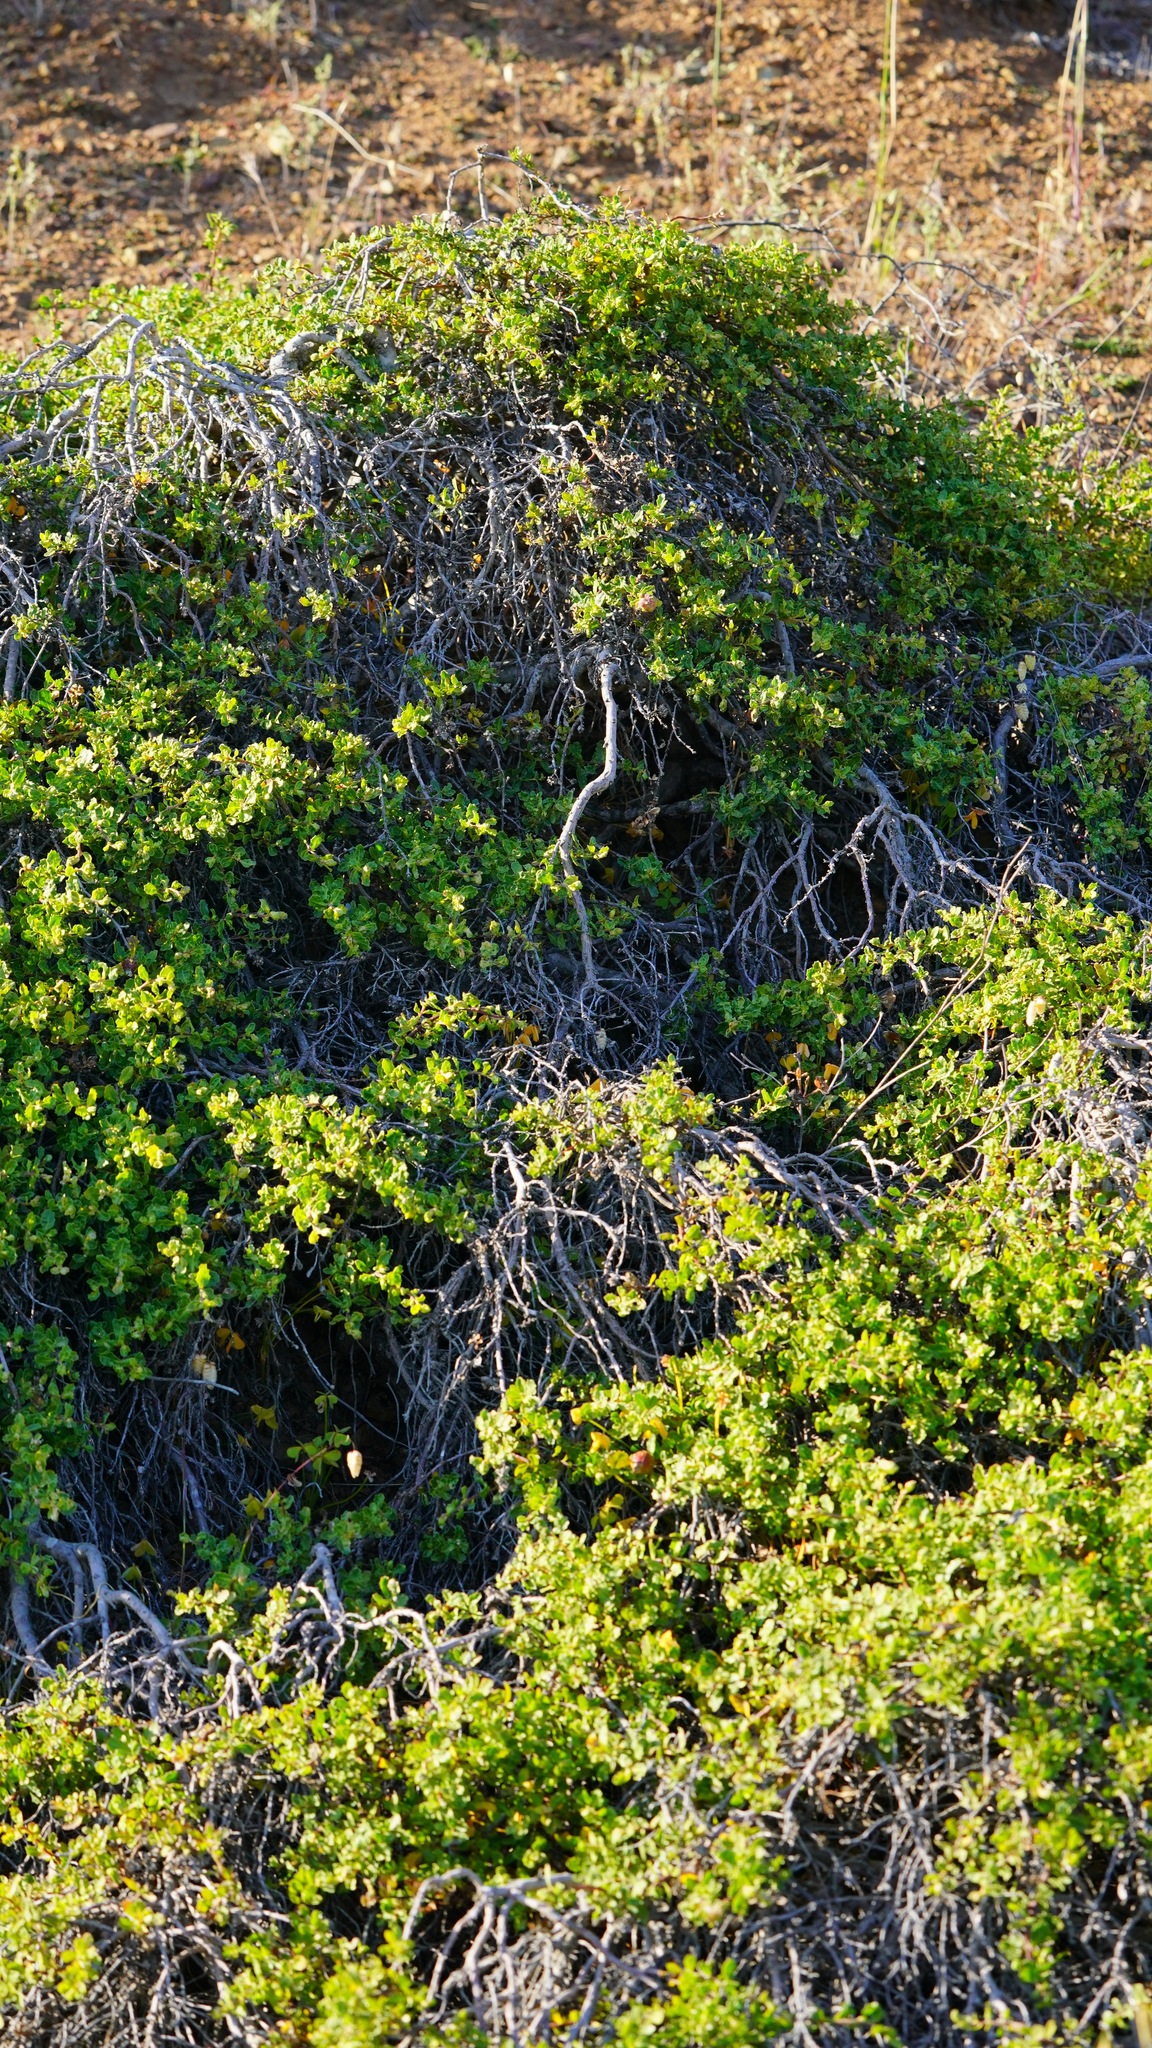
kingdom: Plantae
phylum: Tracheophyta
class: Magnoliopsida
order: Asterales
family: Asteraceae
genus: Baccharis
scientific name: Baccharis pilularis
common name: Coyotebrush
